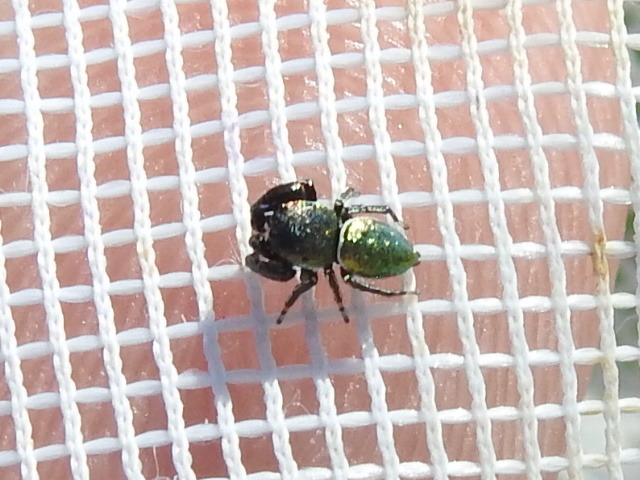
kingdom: Animalia
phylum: Arthropoda
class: Arachnida
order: Araneae
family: Salticidae
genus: Sassacus
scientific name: Sassacus papenhoei
